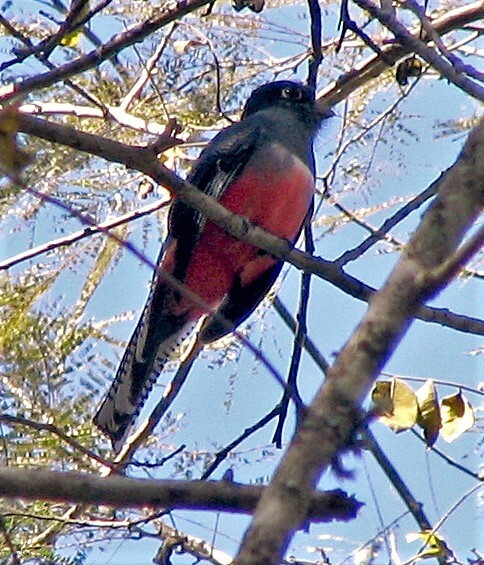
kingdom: Animalia
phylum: Chordata
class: Aves
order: Trogoniformes
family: Trogonidae
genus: Trogon
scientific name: Trogon curucui
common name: Blue-crowned trogon
